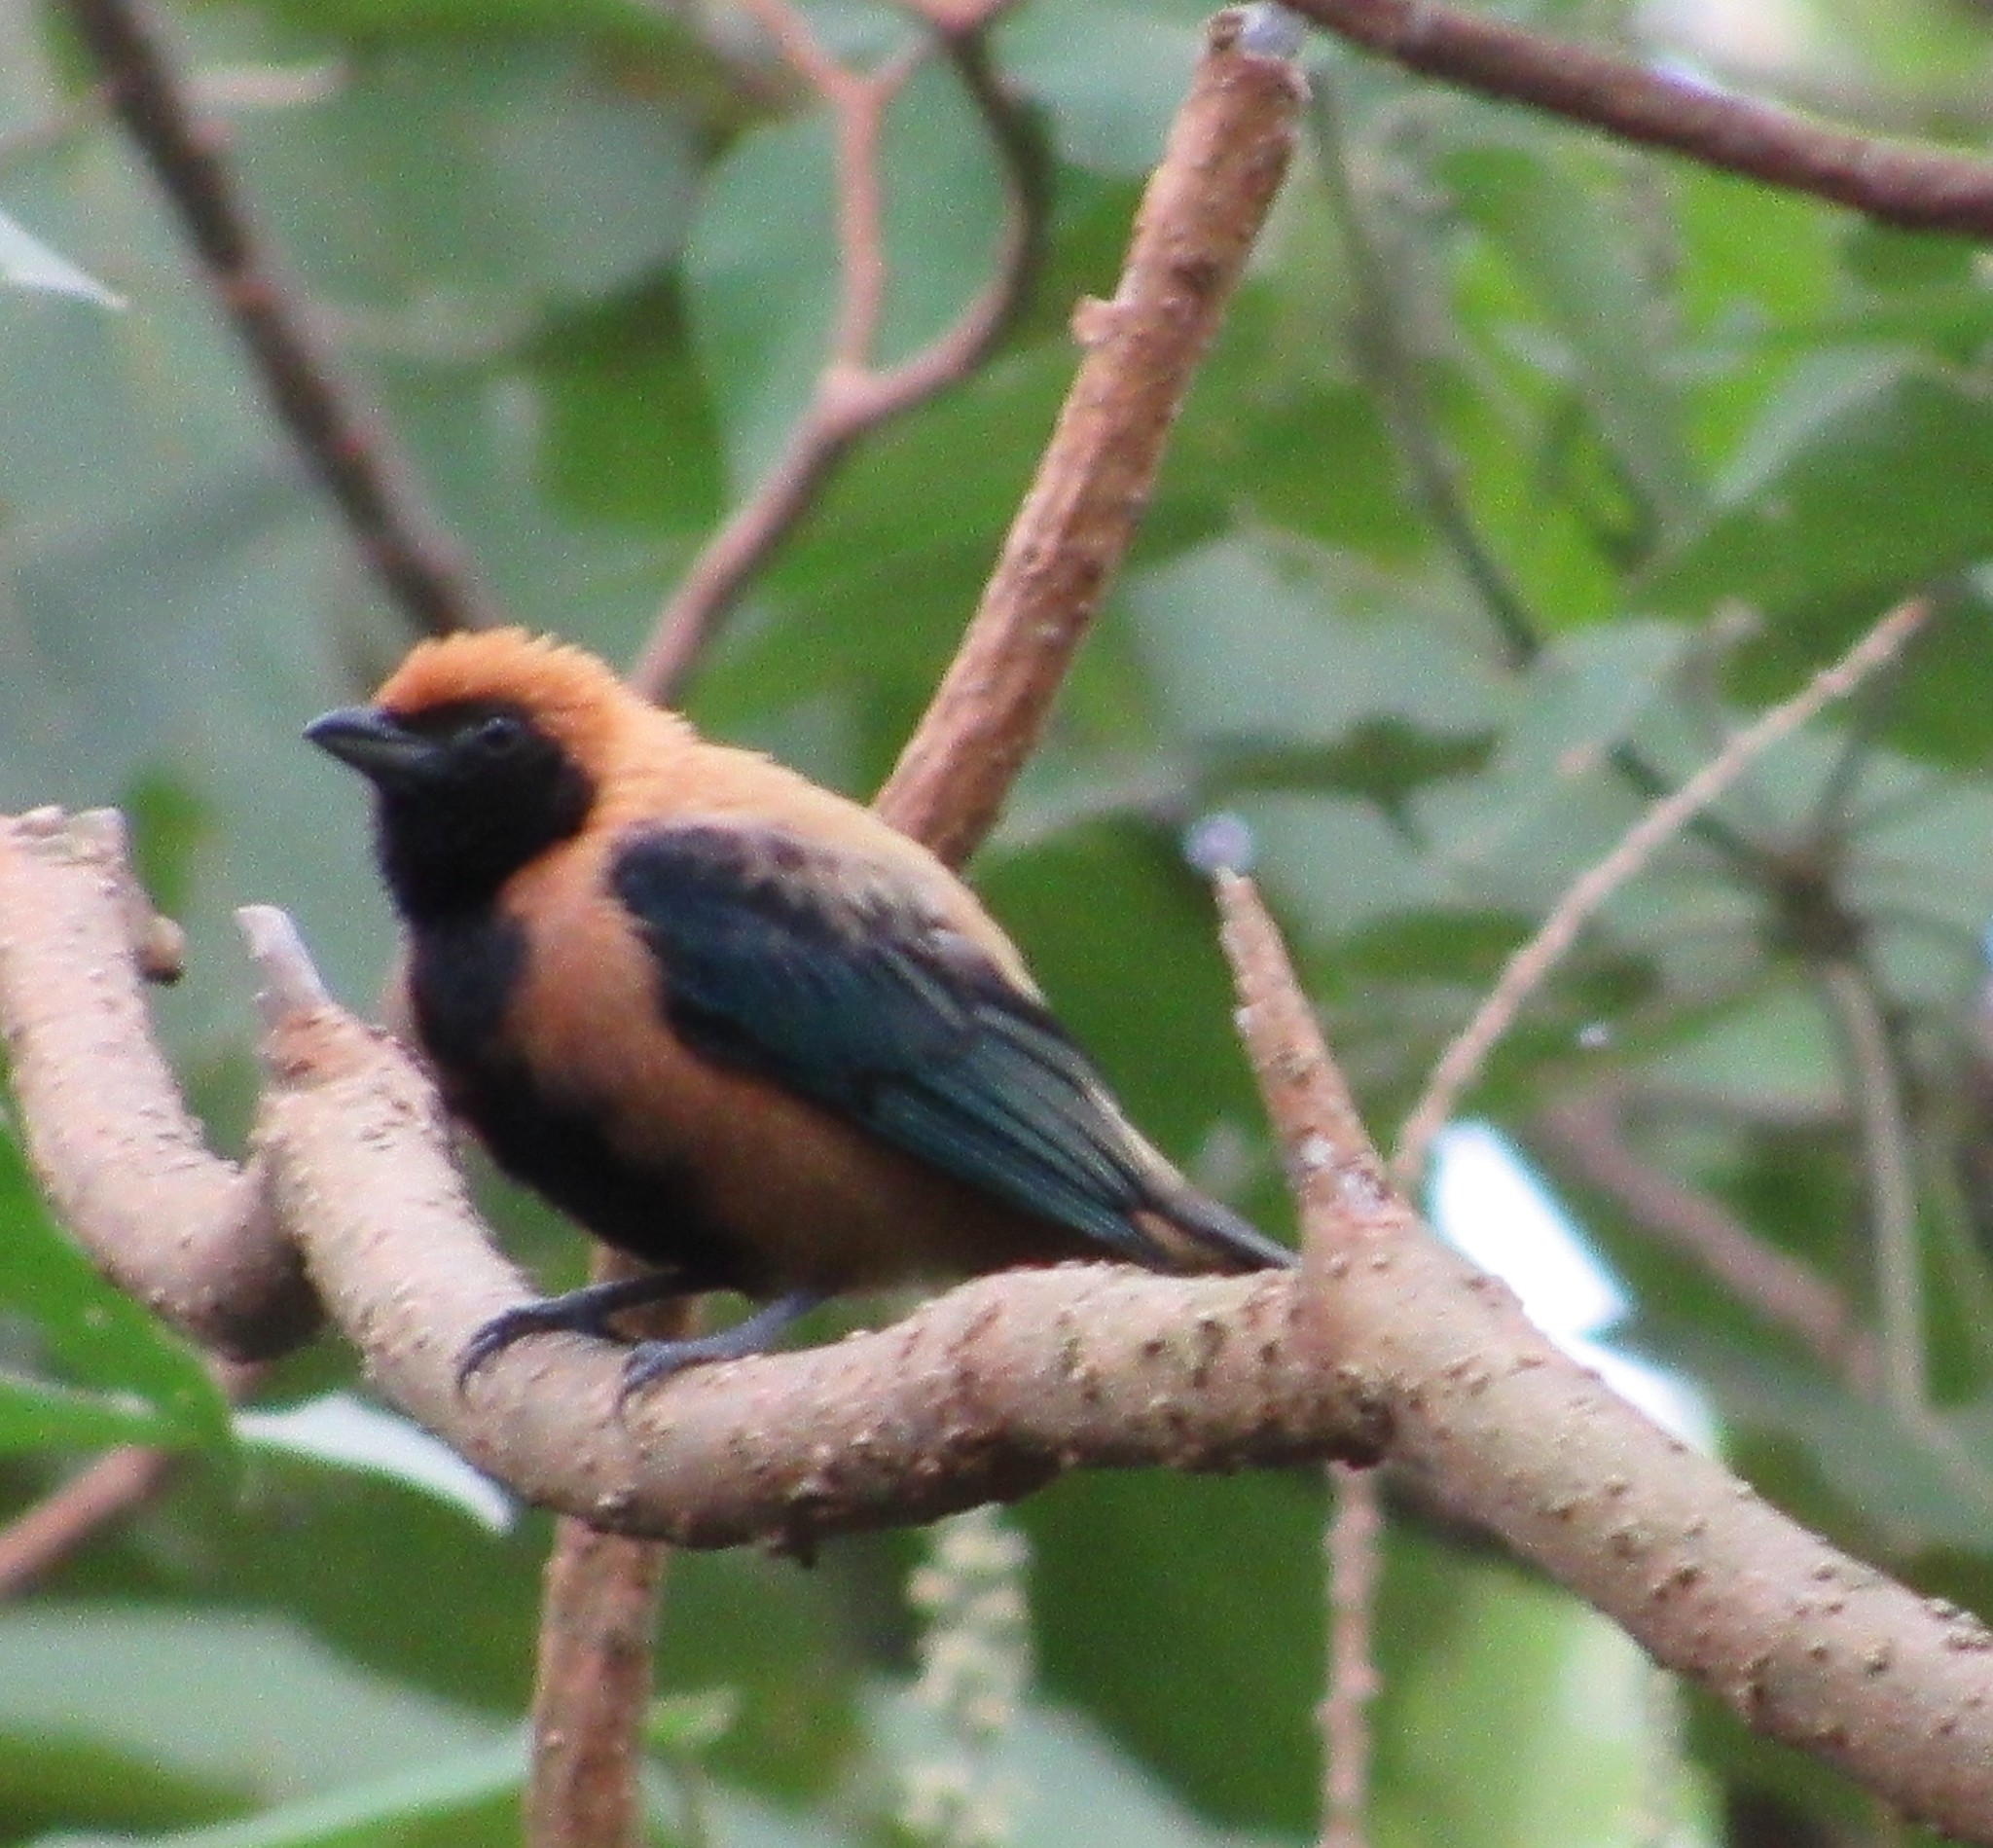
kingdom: Animalia
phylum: Chordata
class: Aves
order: Passeriformes
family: Thraupidae
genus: Stilpnia
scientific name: Stilpnia cayana
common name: Burnished-buff tanager
